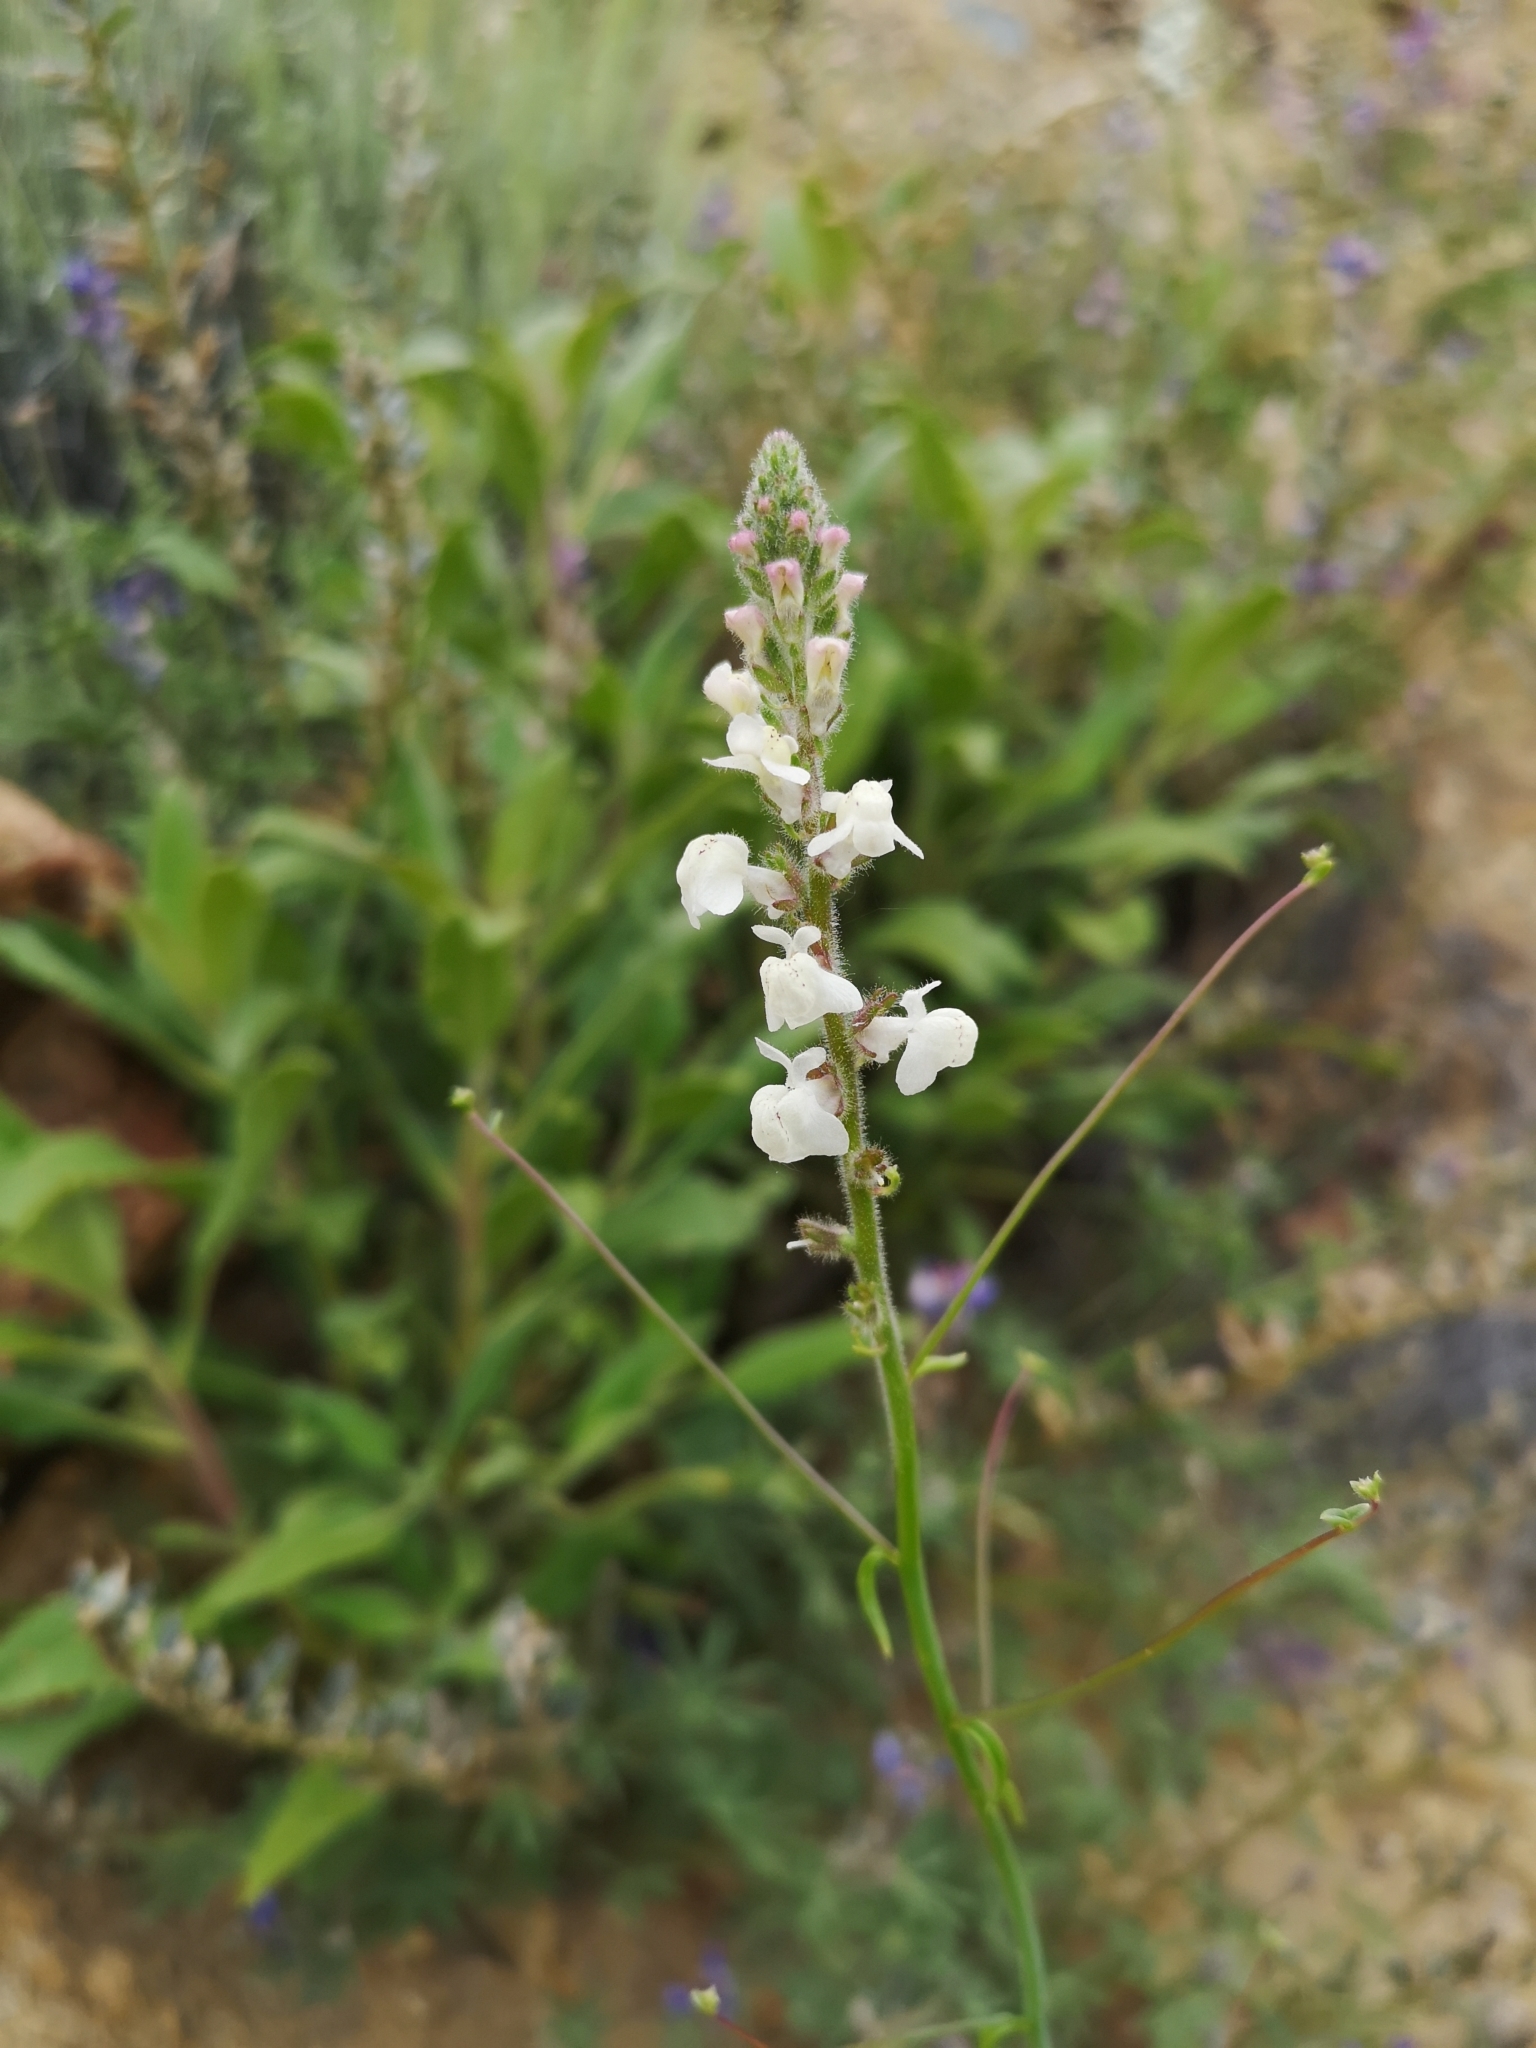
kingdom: Plantae
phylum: Tracheophyta
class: Magnoliopsida
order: Lamiales
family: Plantaginaceae
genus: Sairocarpus
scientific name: Sairocarpus coulterianus
